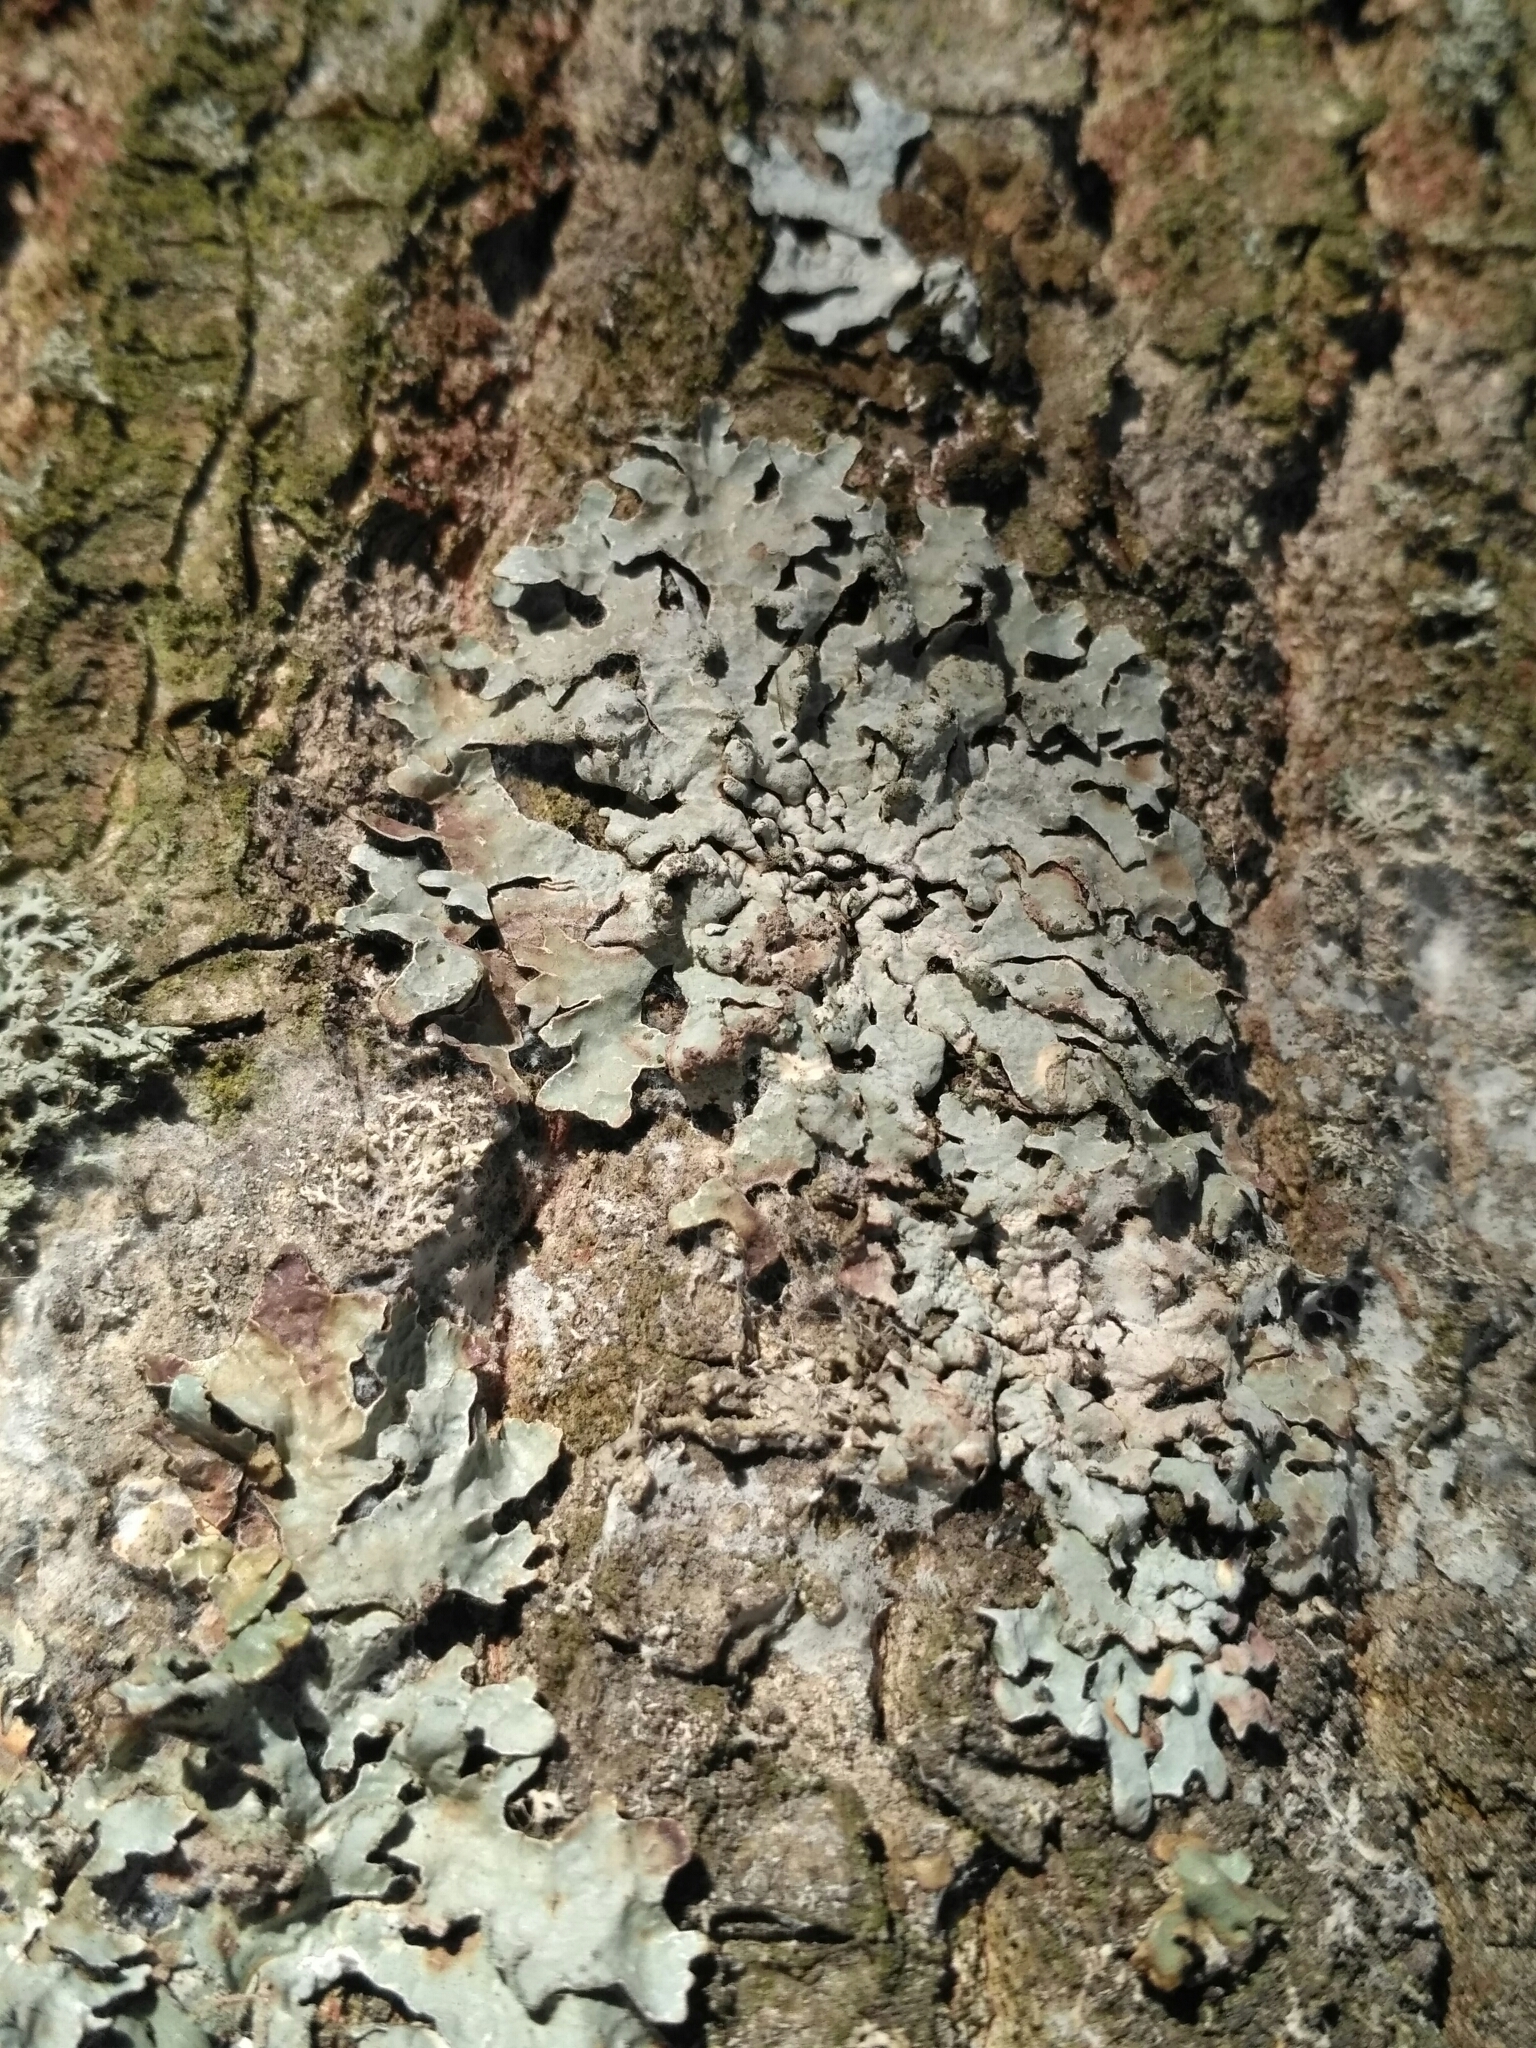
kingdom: Fungi
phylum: Ascomycota
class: Lecanoromycetes
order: Lecanorales
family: Parmeliaceae
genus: Parmelia
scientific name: Parmelia sulcata
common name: Netted shield lichen
